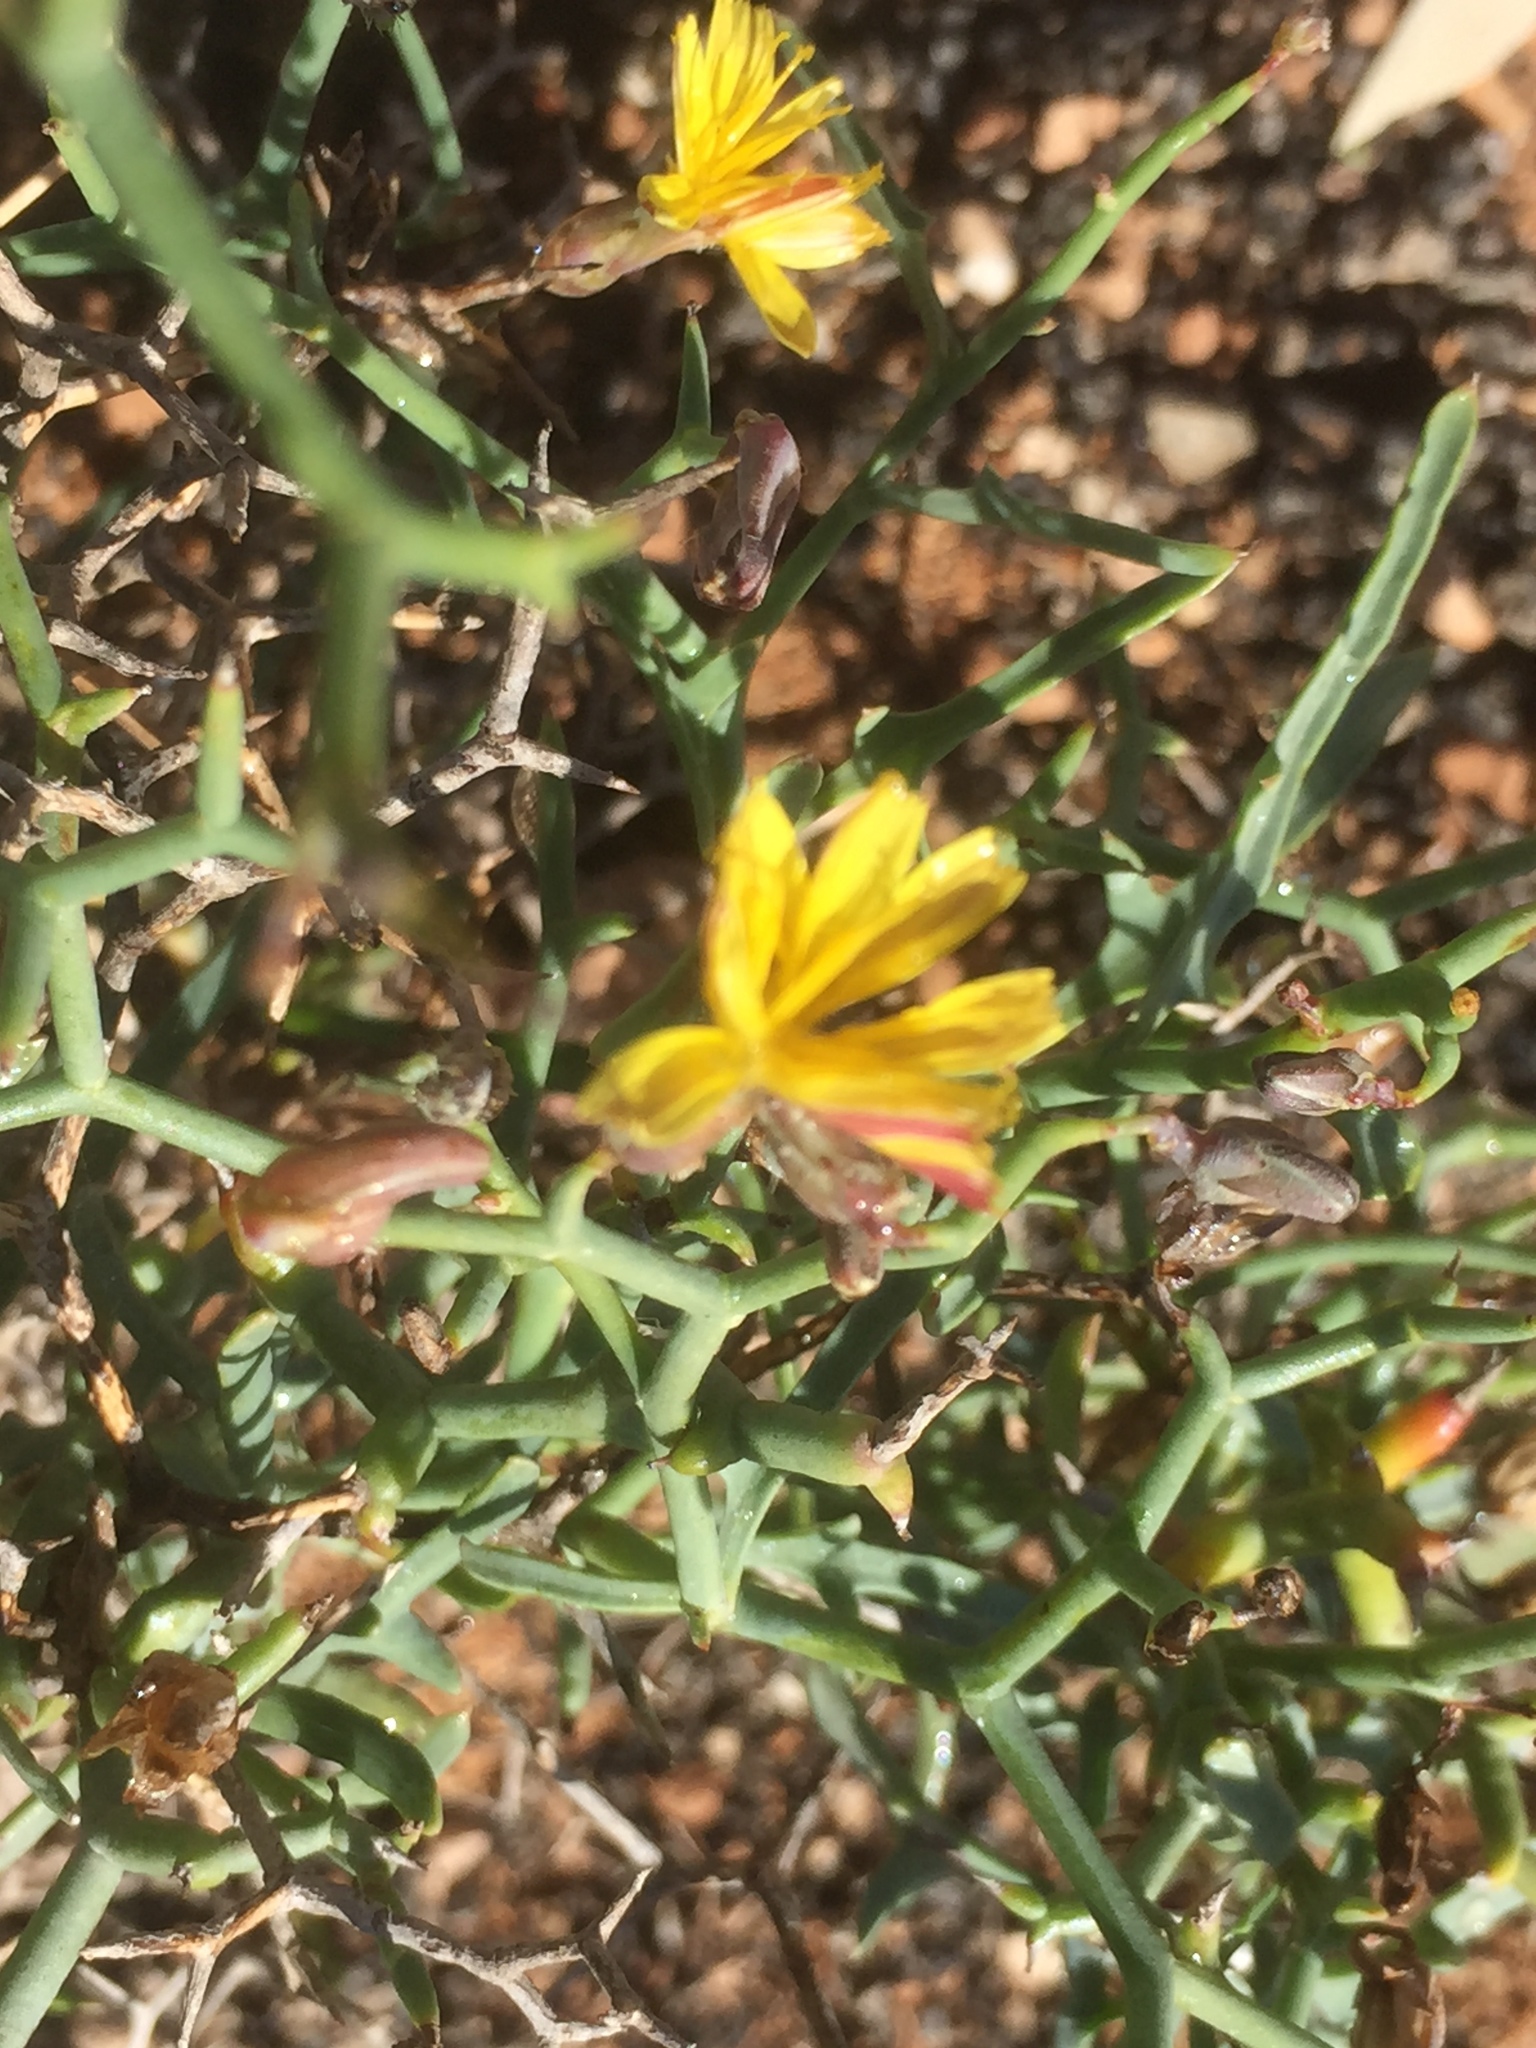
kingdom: Plantae
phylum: Tracheophyta
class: Magnoliopsida
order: Asterales
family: Asteraceae
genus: Launaea
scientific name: Launaea arborescens
